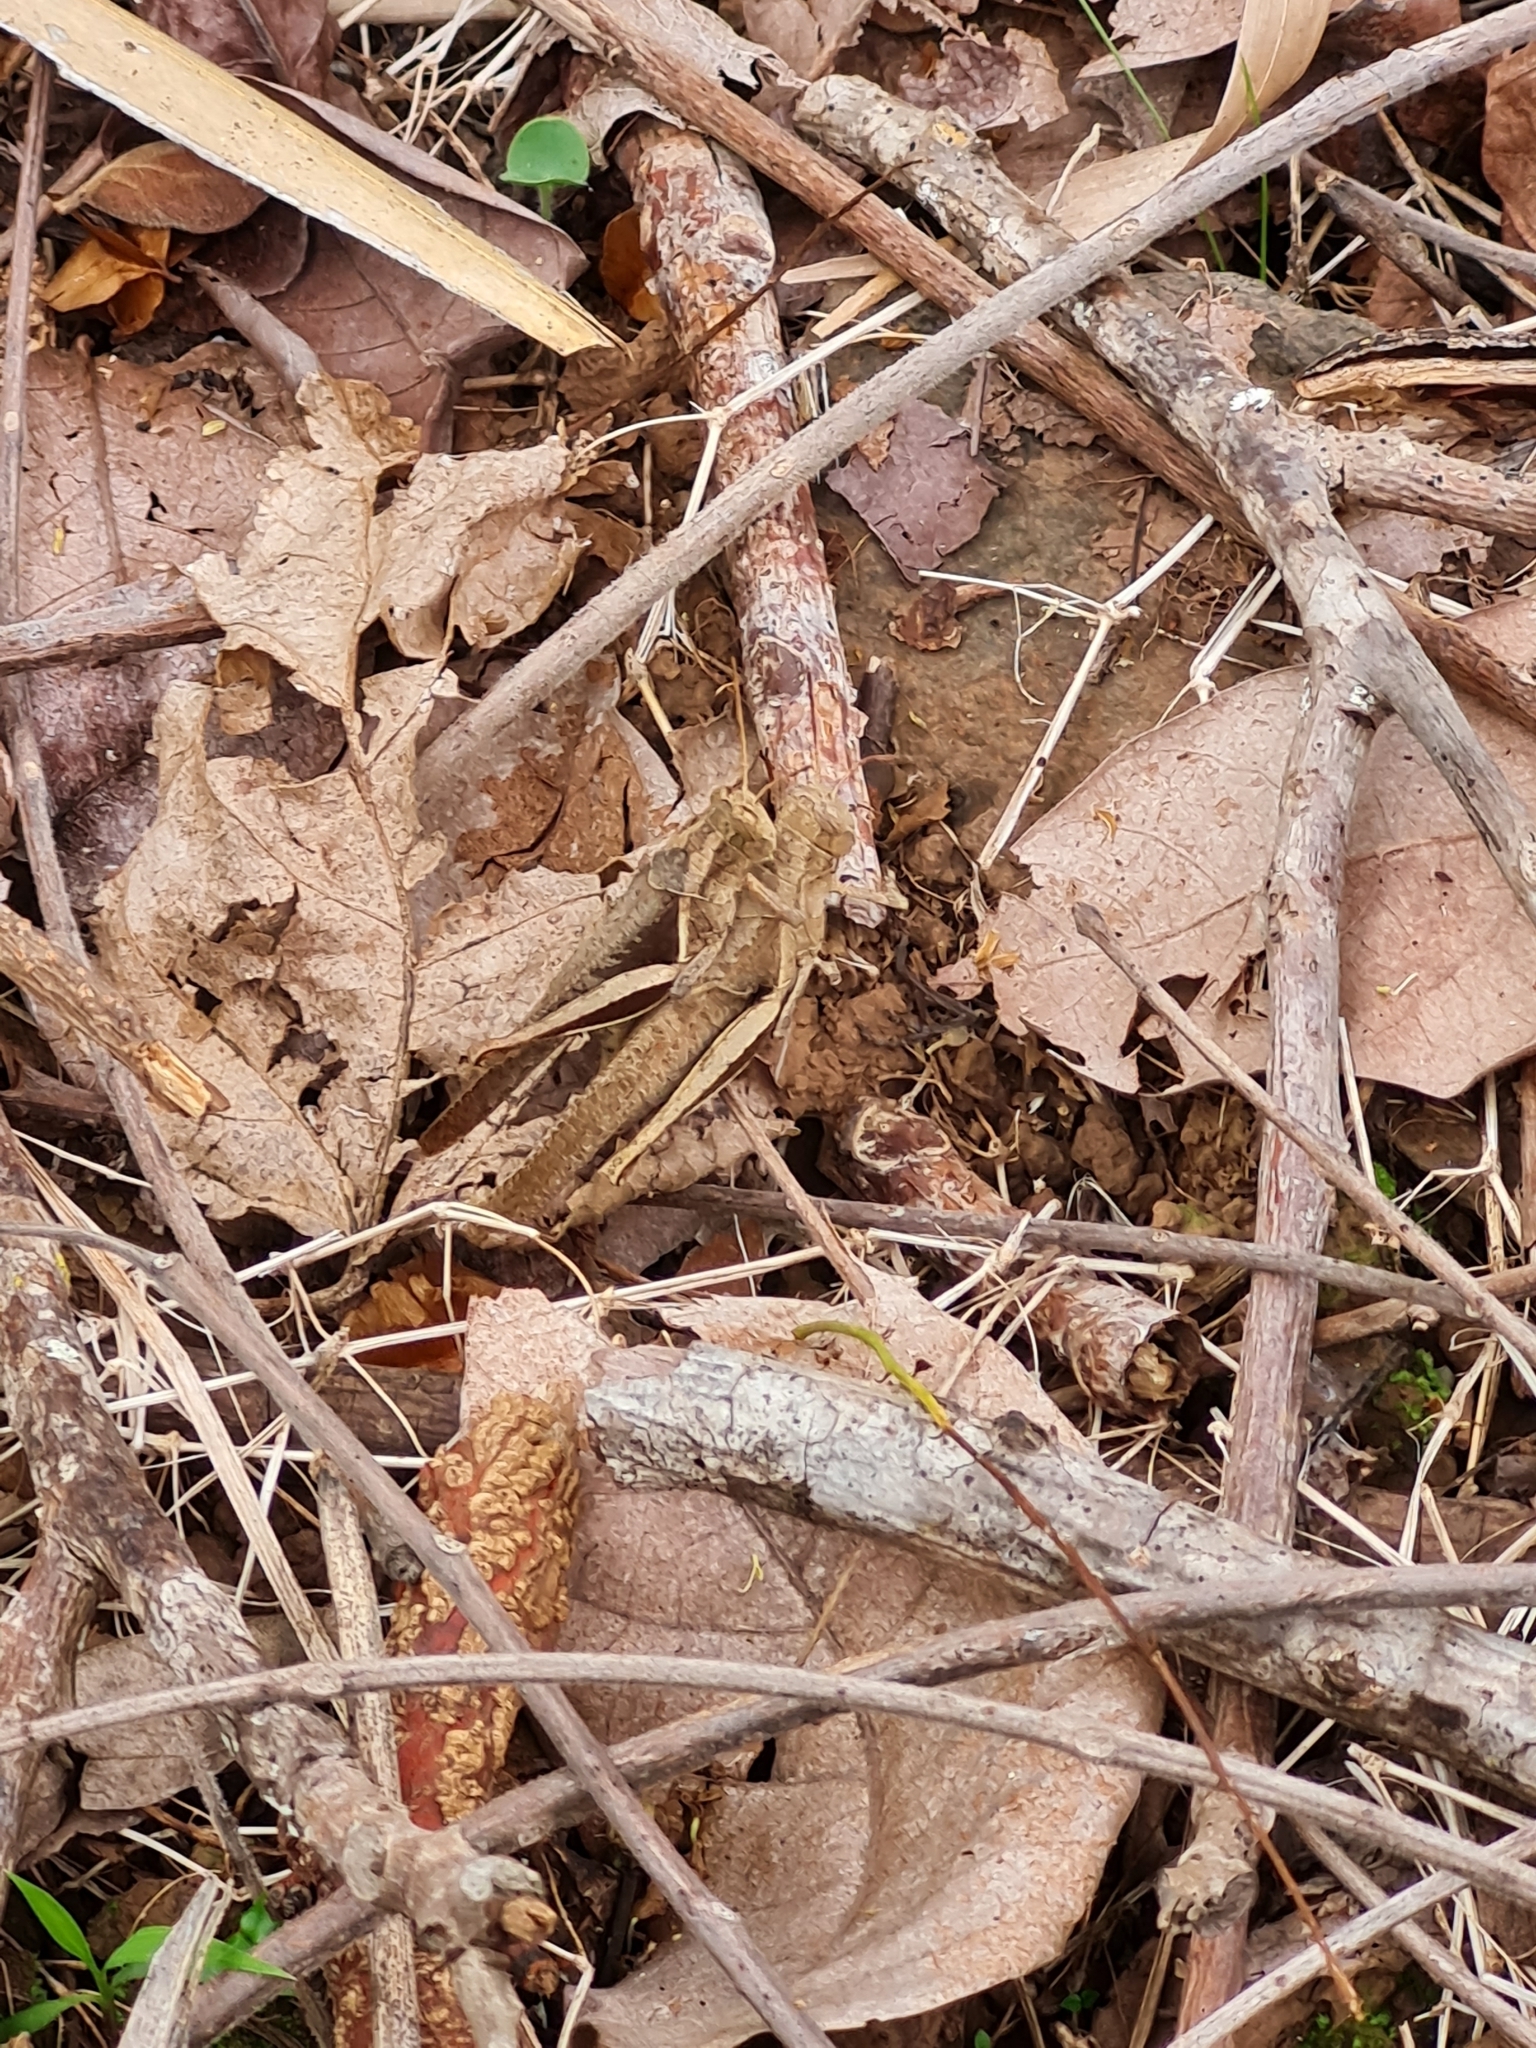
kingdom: Animalia
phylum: Arthropoda
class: Insecta
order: Orthoptera
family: Acrididae
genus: Abracris
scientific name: Abracris flavolineata
